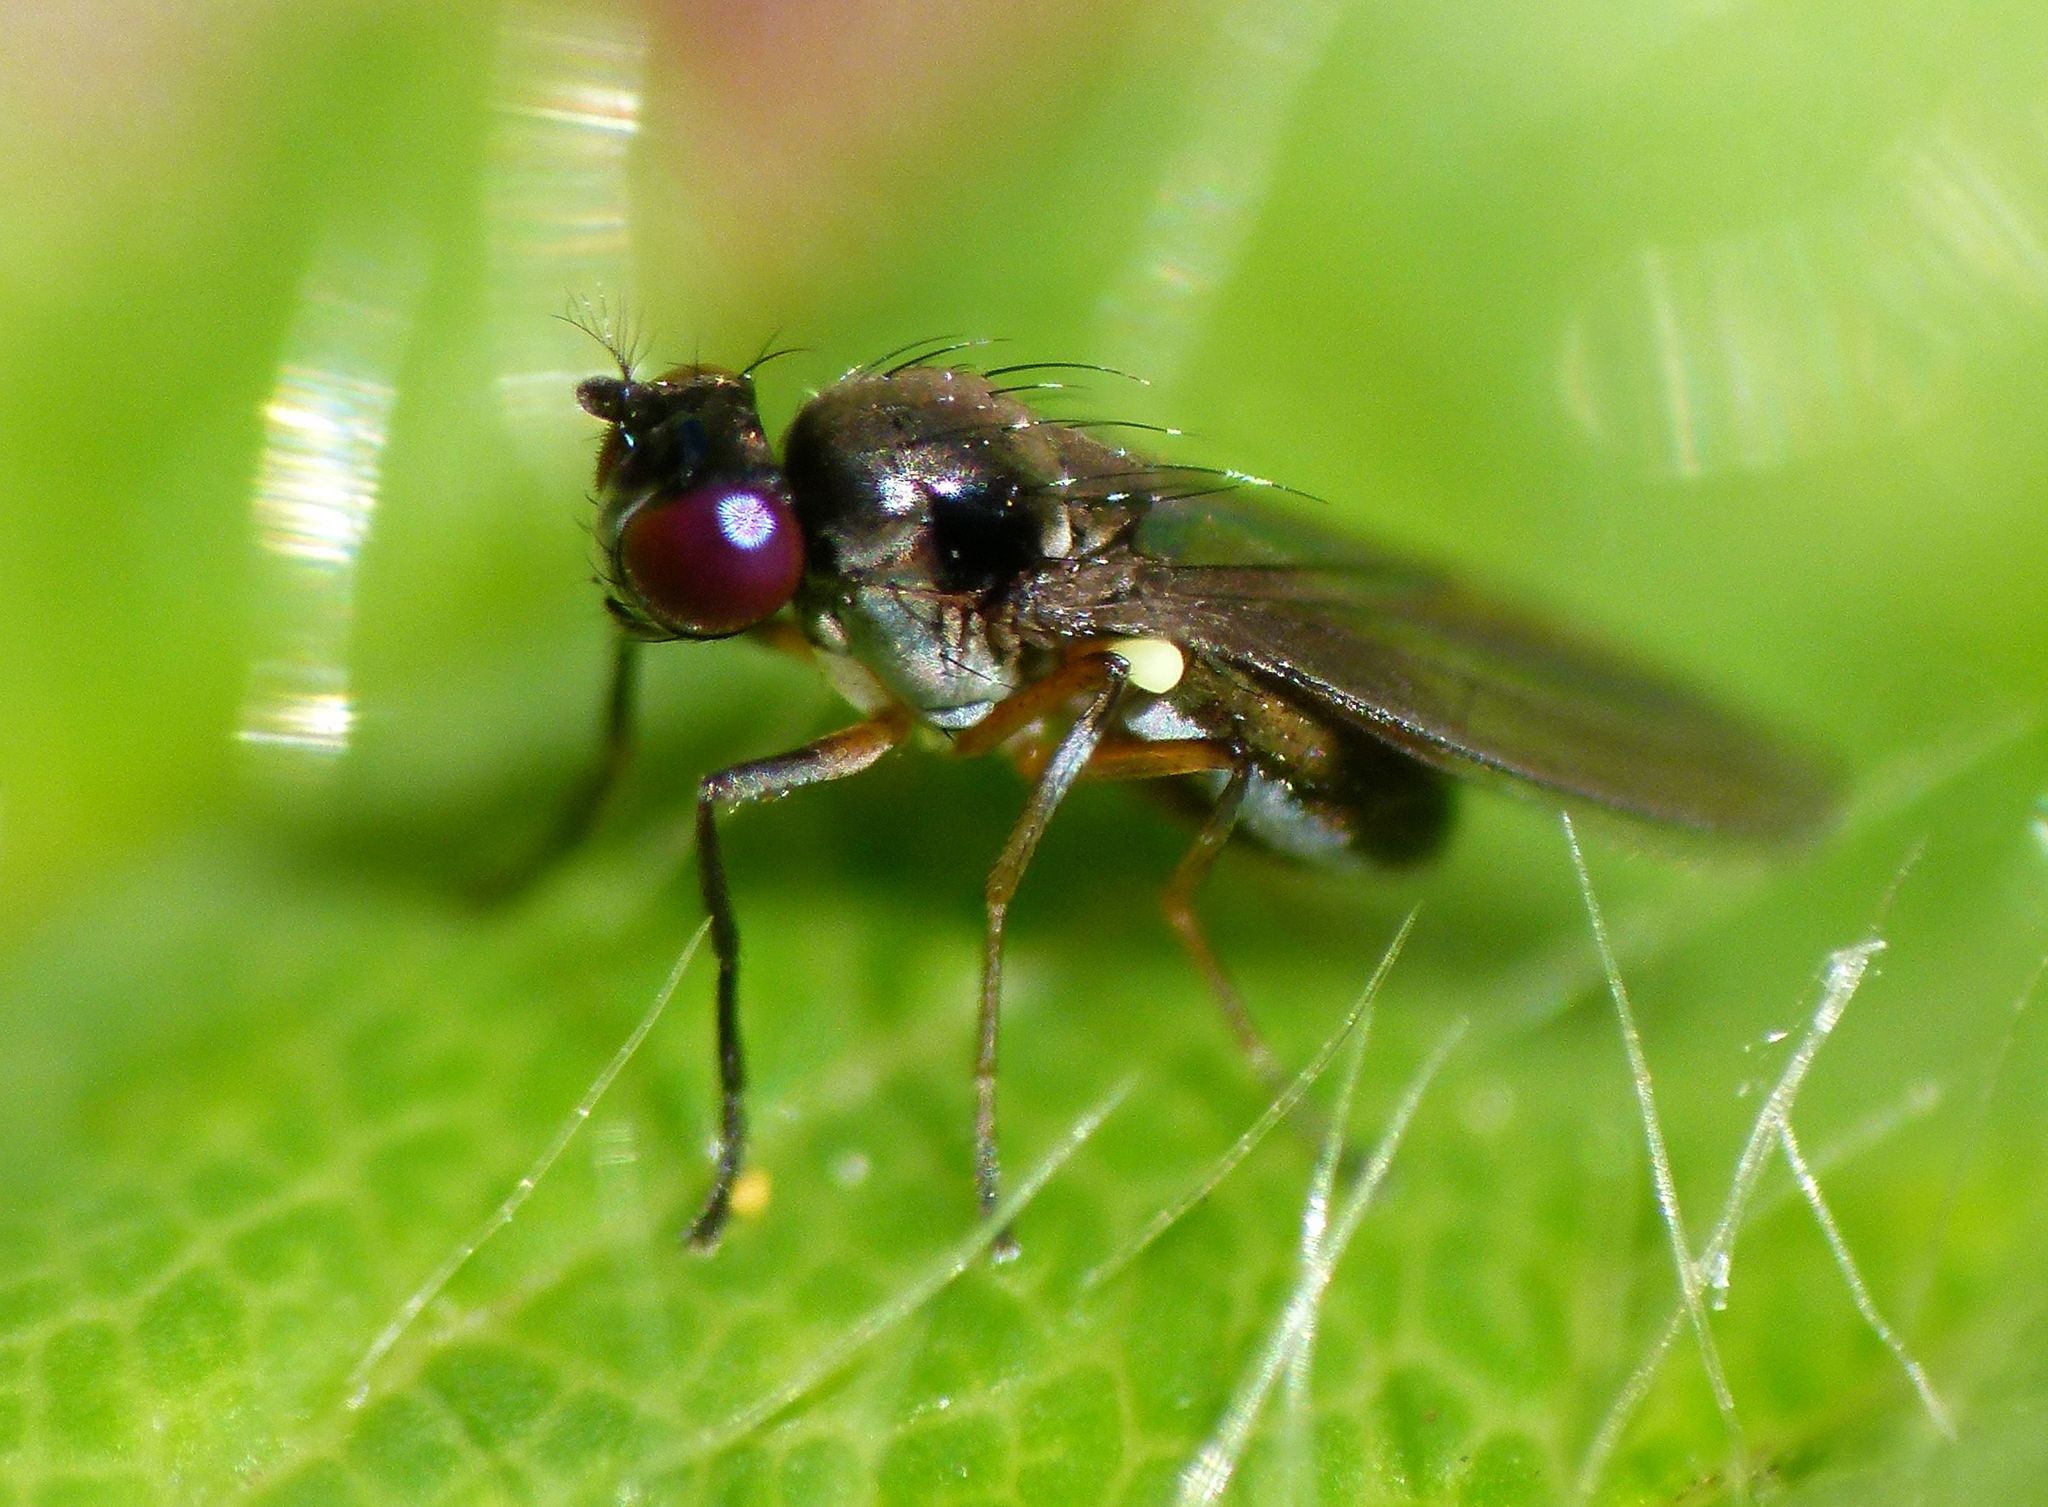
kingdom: Animalia
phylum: Arthropoda
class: Insecta
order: Diptera
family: Ephydridae
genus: Hydrellia
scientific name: Hydrellia tritici
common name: Shore fly
